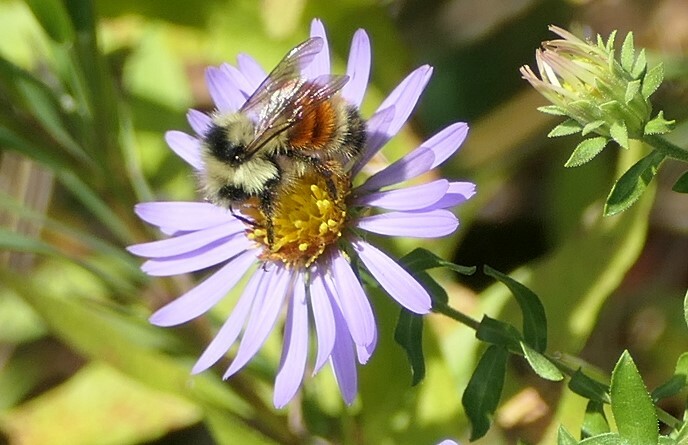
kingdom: Animalia
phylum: Arthropoda
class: Insecta
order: Hymenoptera
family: Apidae
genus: Bombus
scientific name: Bombus ternarius
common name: Tri-colored bumble bee
